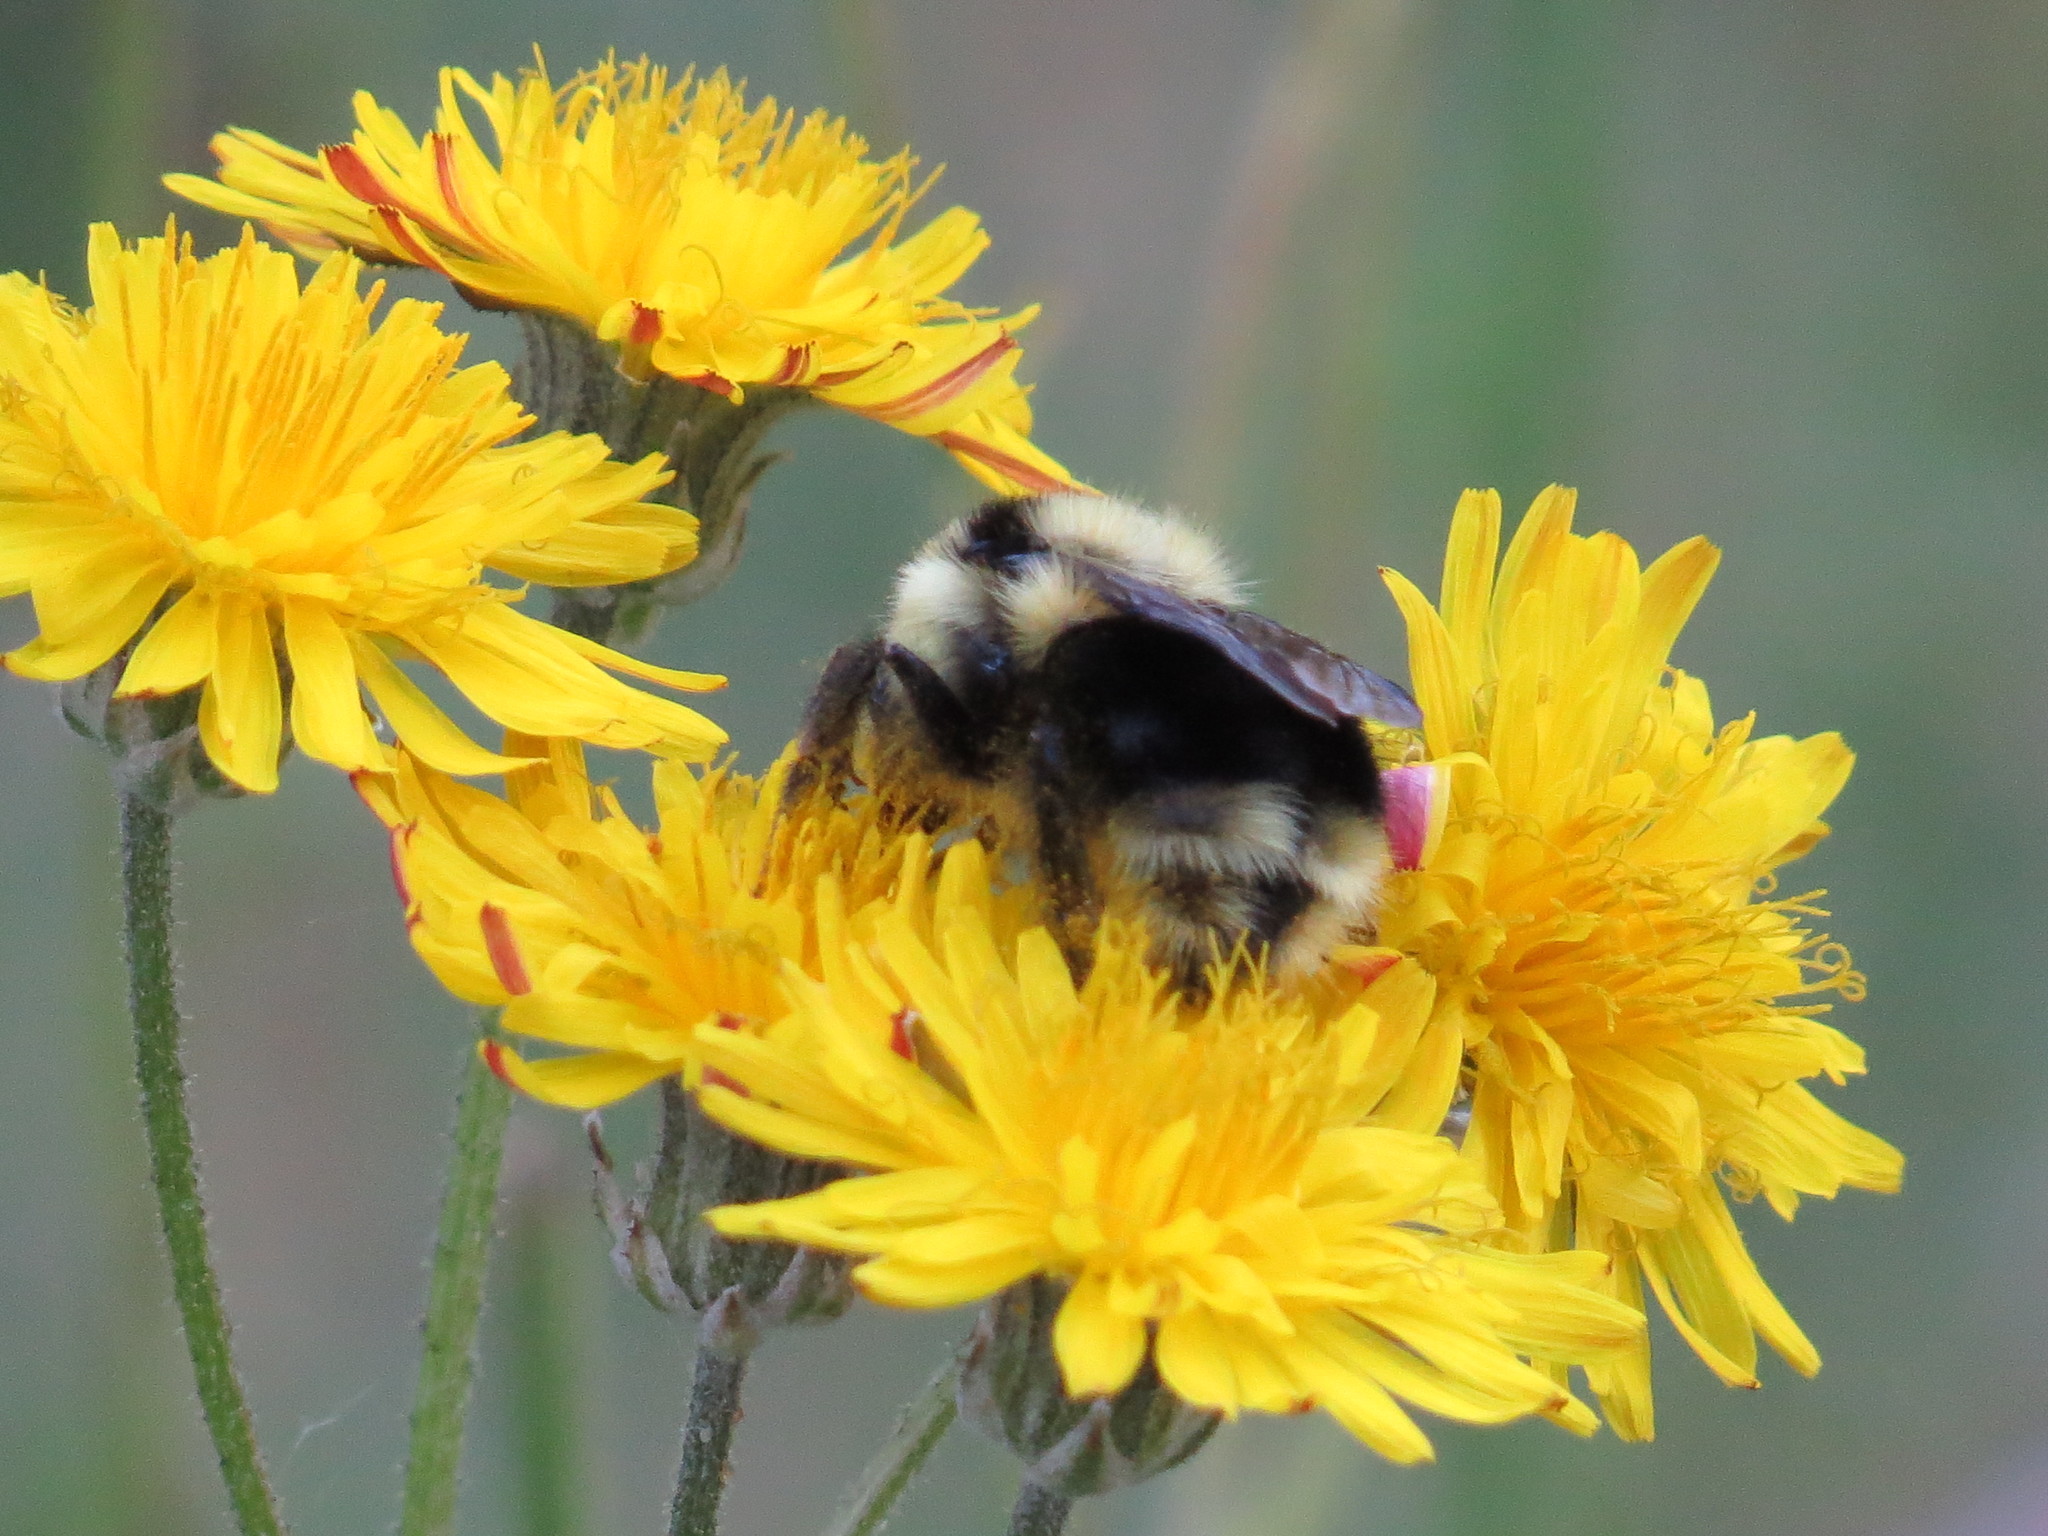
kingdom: Animalia
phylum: Arthropoda
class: Insecta
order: Hymenoptera
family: Apidae
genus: Bombus
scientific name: Bombus melanopygus
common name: Black tail bumble bee
